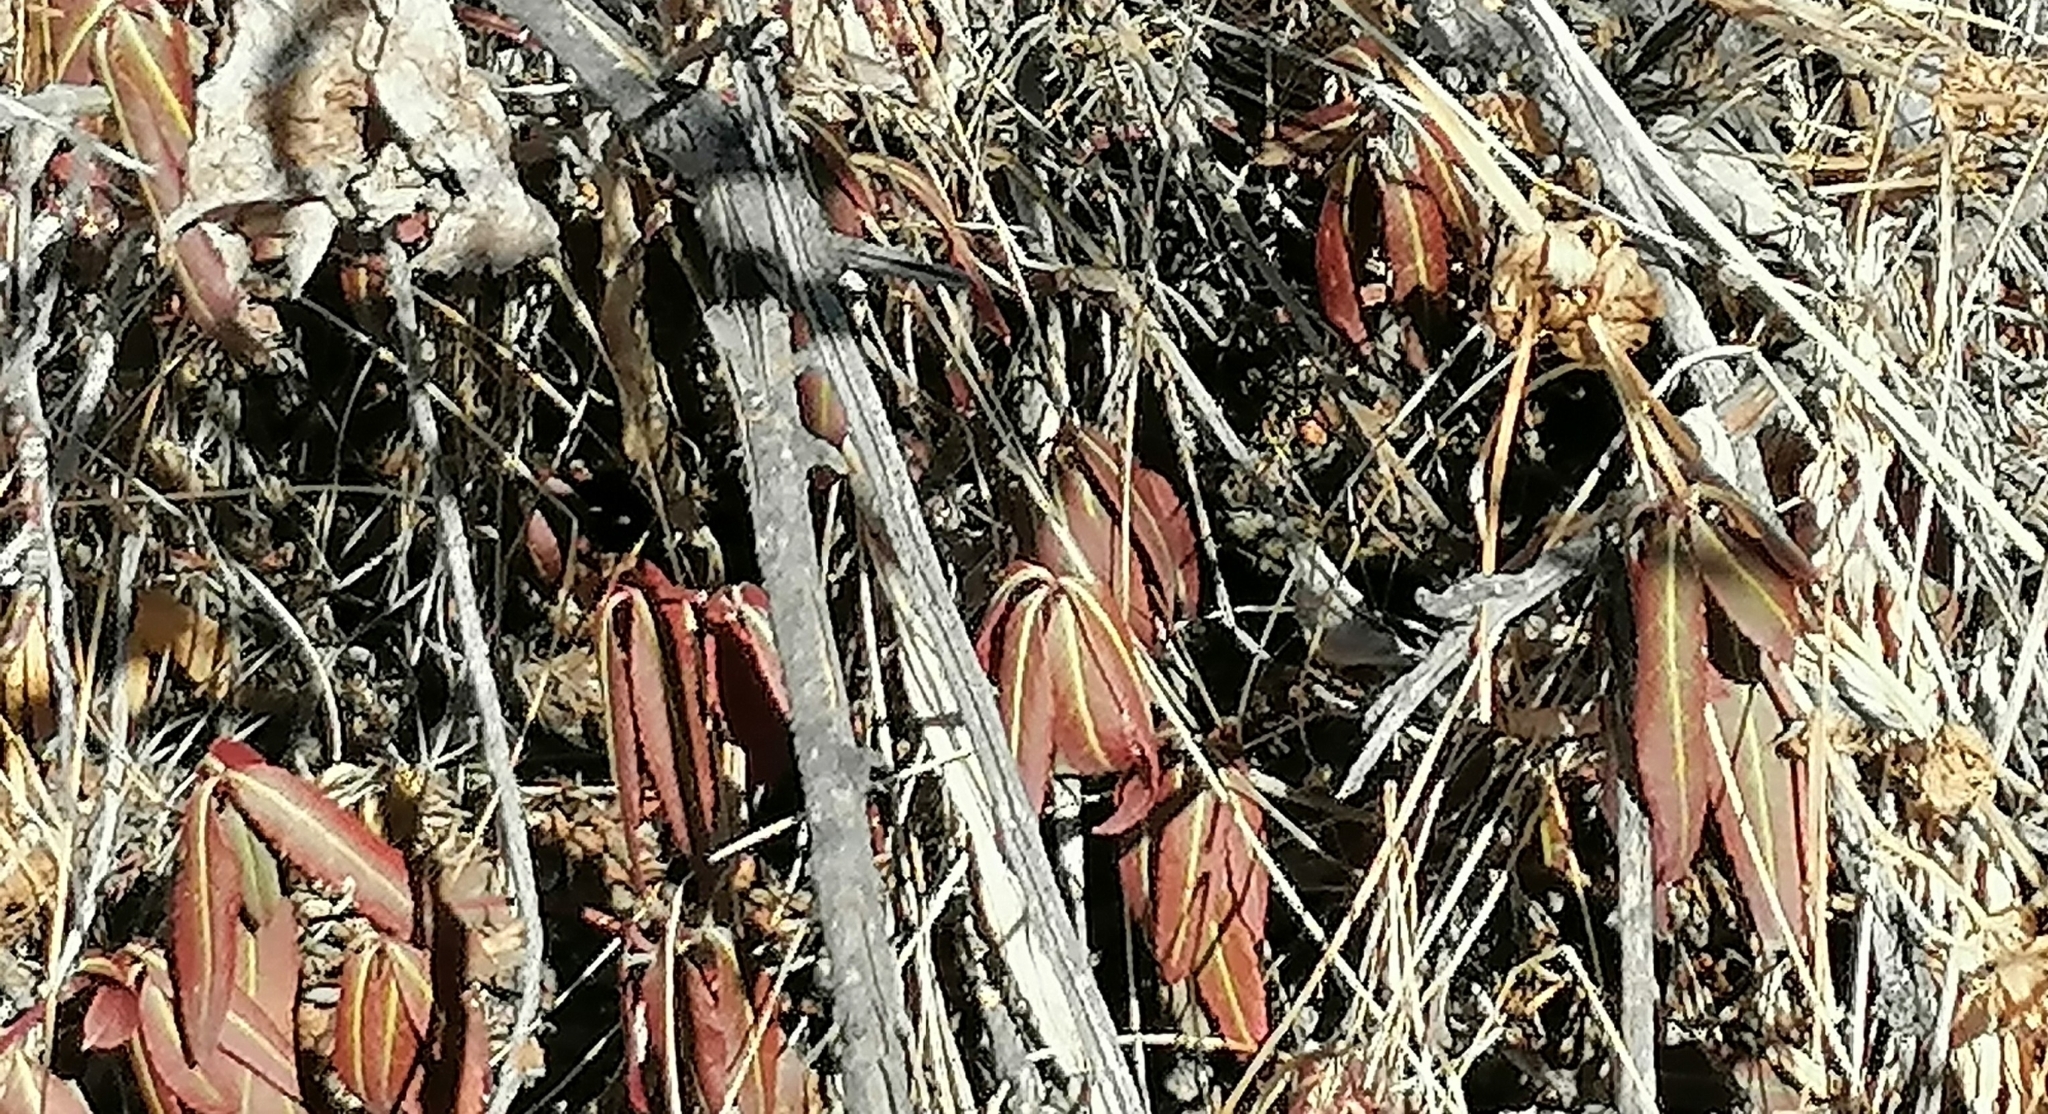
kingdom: Plantae
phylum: Tracheophyta
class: Magnoliopsida
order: Celastrales
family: Celastraceae
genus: Euonymus
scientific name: Euonymus semenovii
